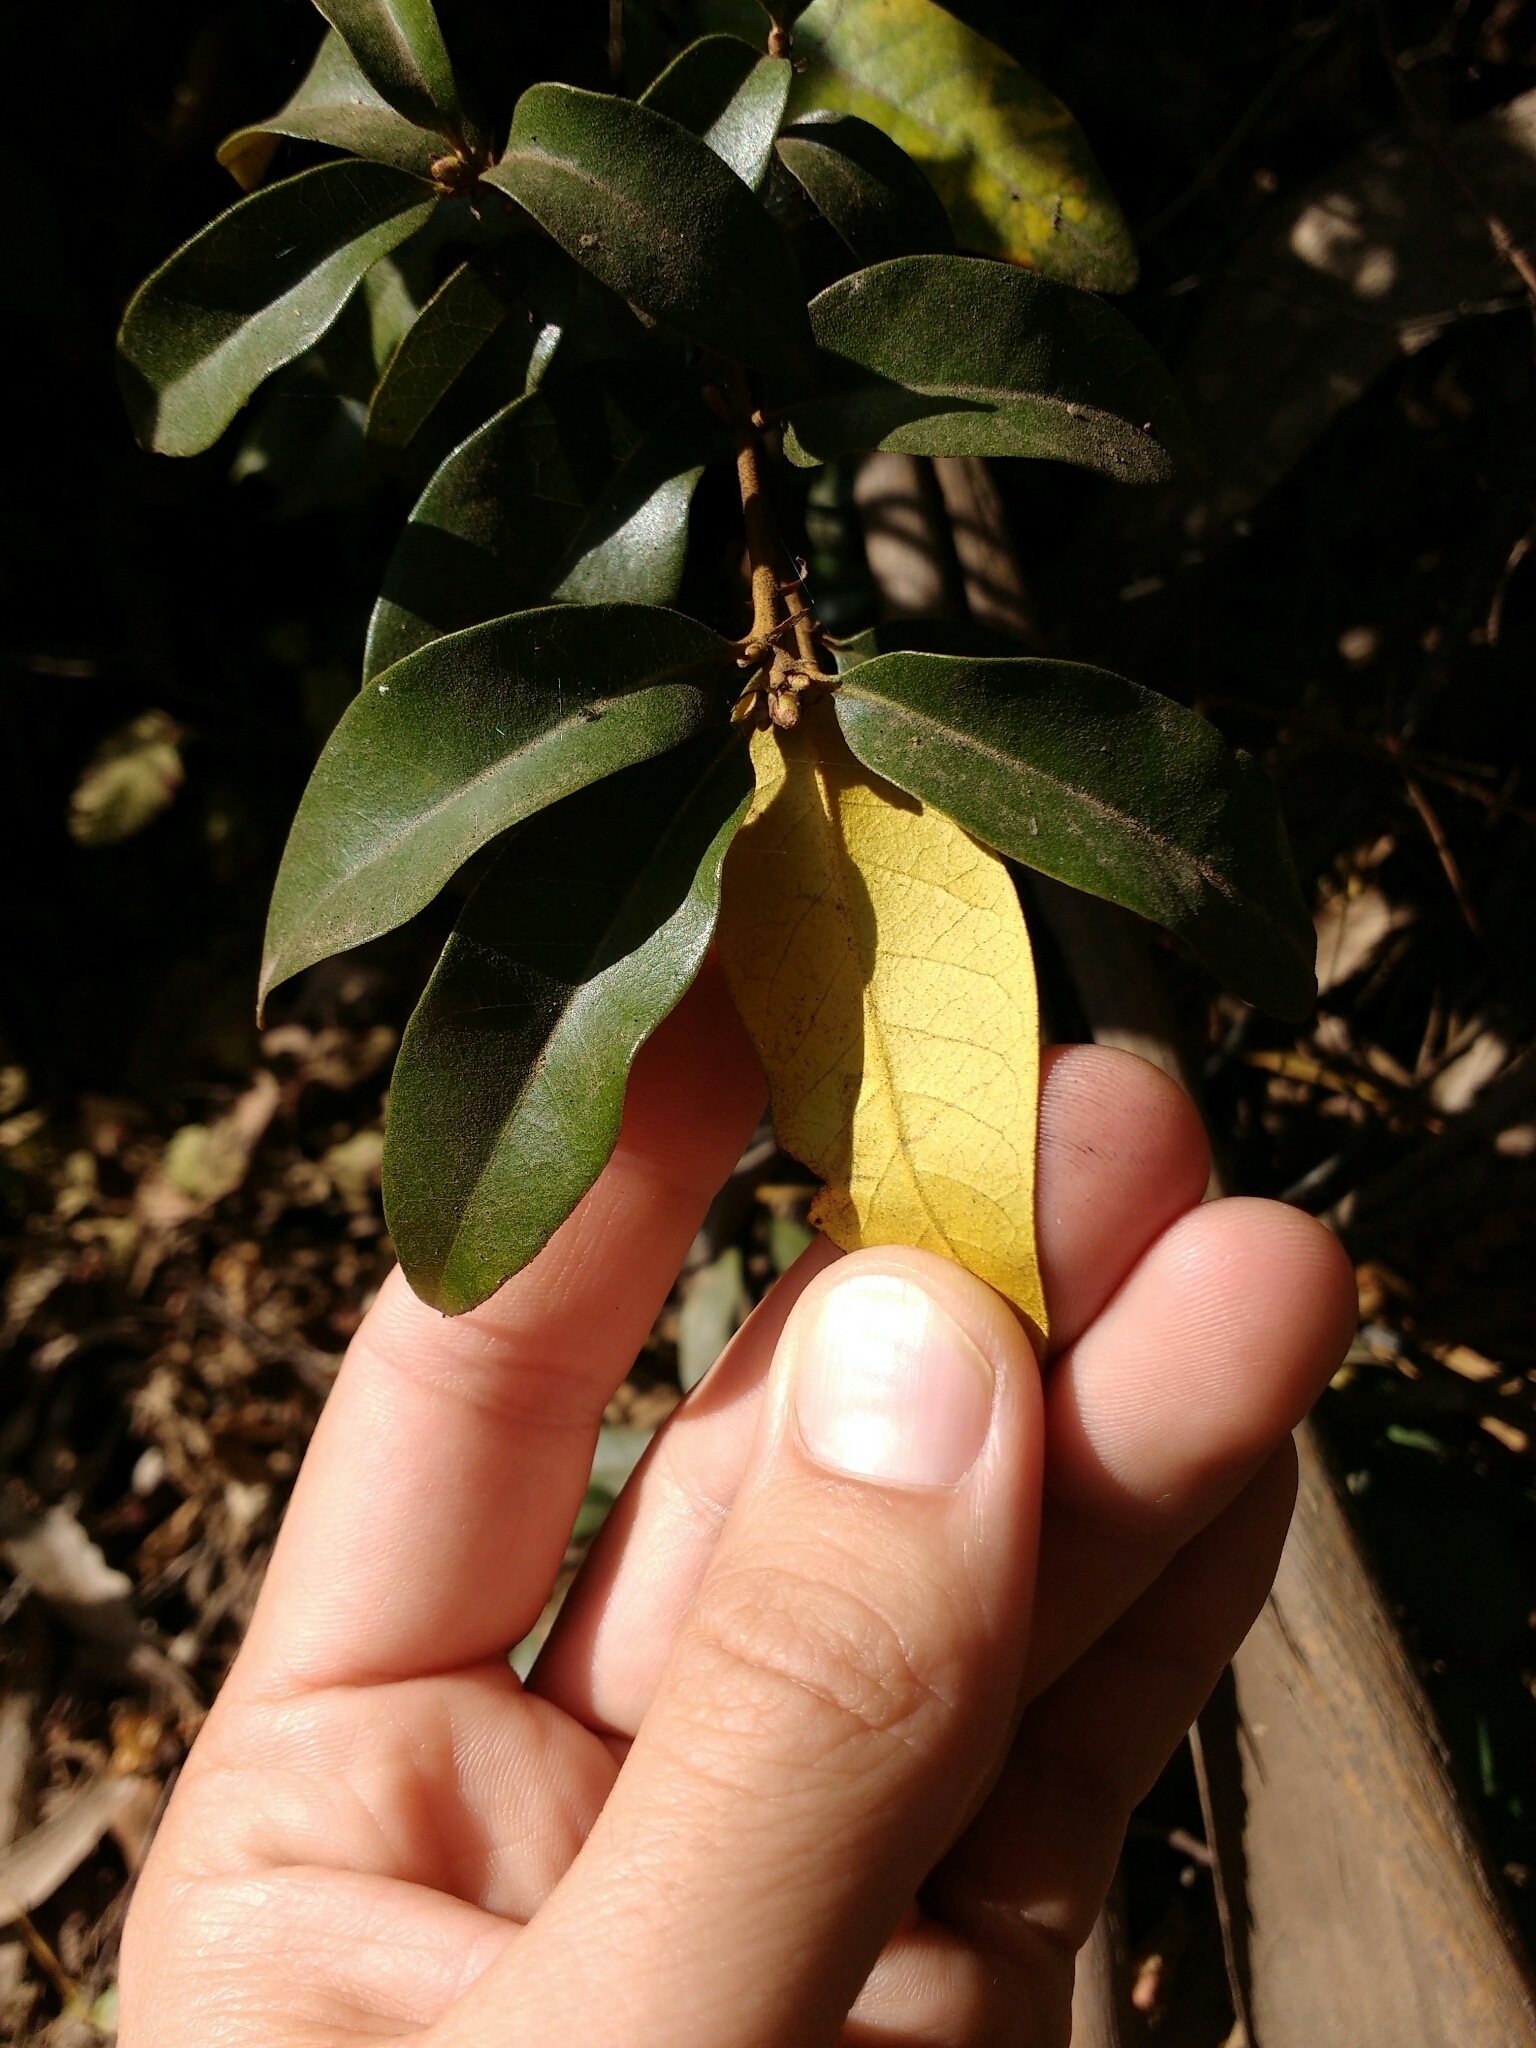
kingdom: Plantae
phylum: Tracheophyta
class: Magnoliopsida
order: Fagales
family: Fagaceae
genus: Chrysolepis
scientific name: Chrysolepis chrysophylla
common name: Giant chinquapin
